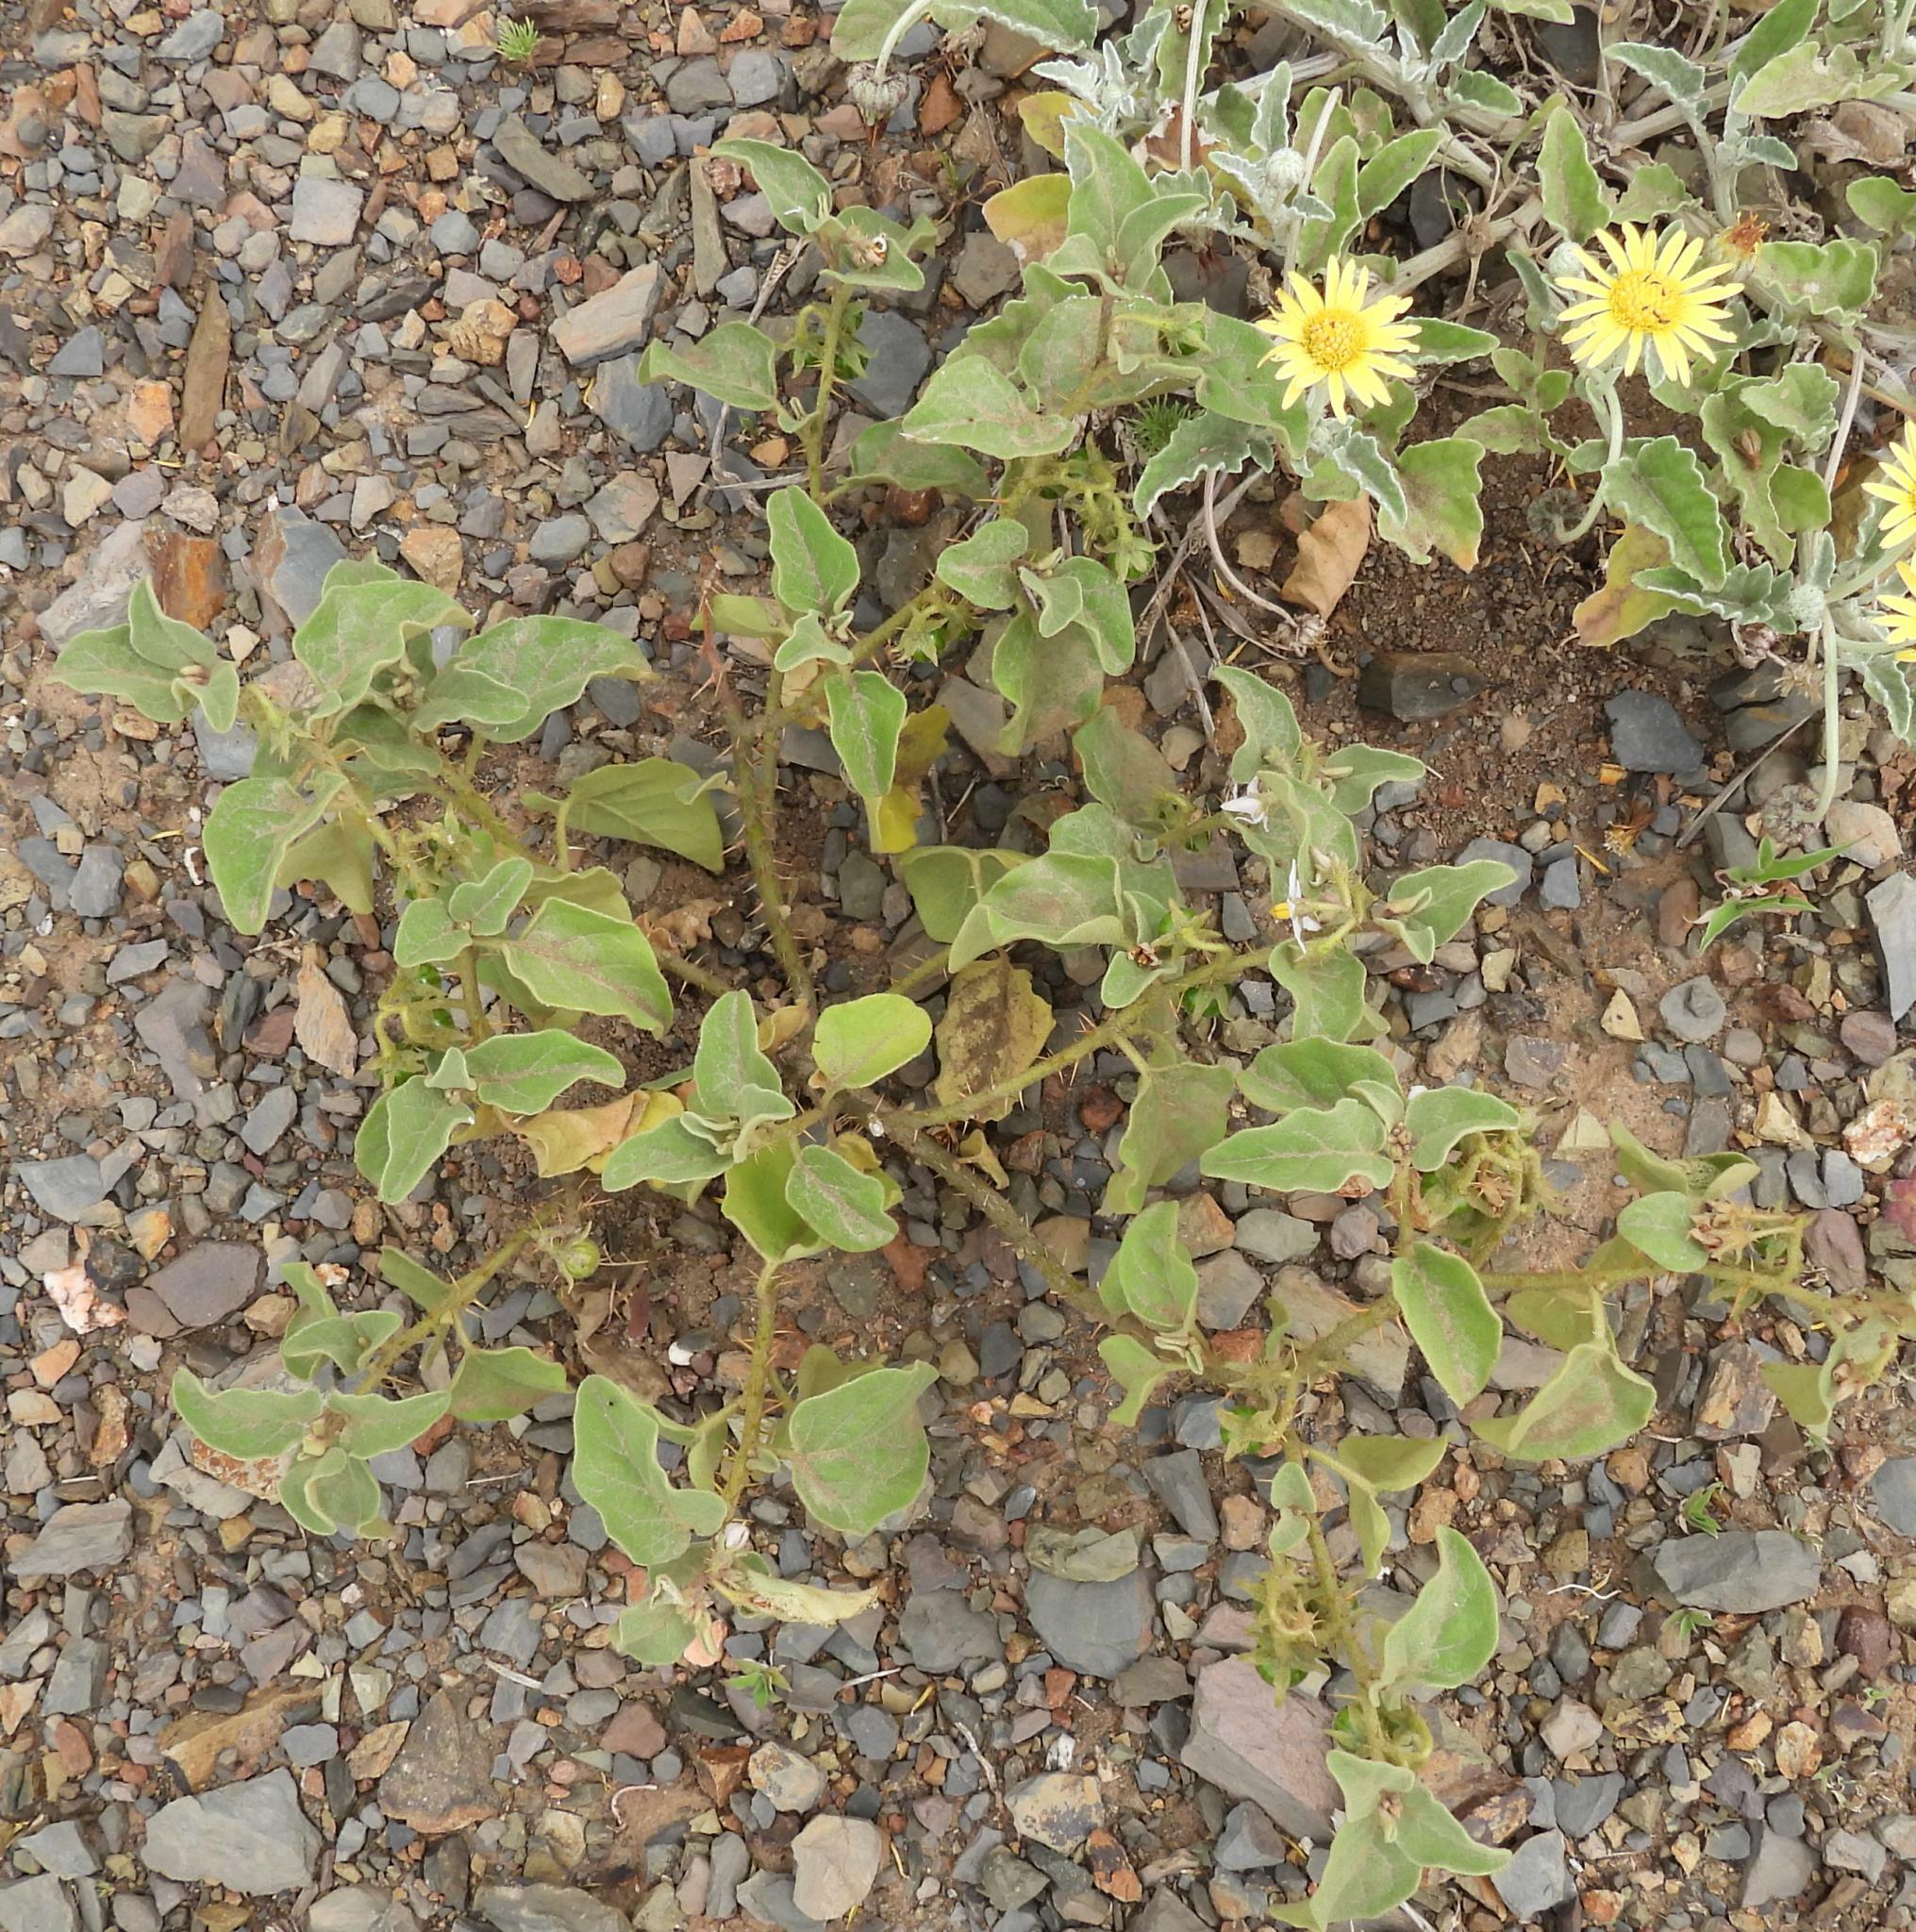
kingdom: Plantae
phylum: Tracheophyta
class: Magnoliopsida
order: Solanales
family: Solanaceae
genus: Solanum
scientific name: Solanum tomentosum
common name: Wild aubergine
